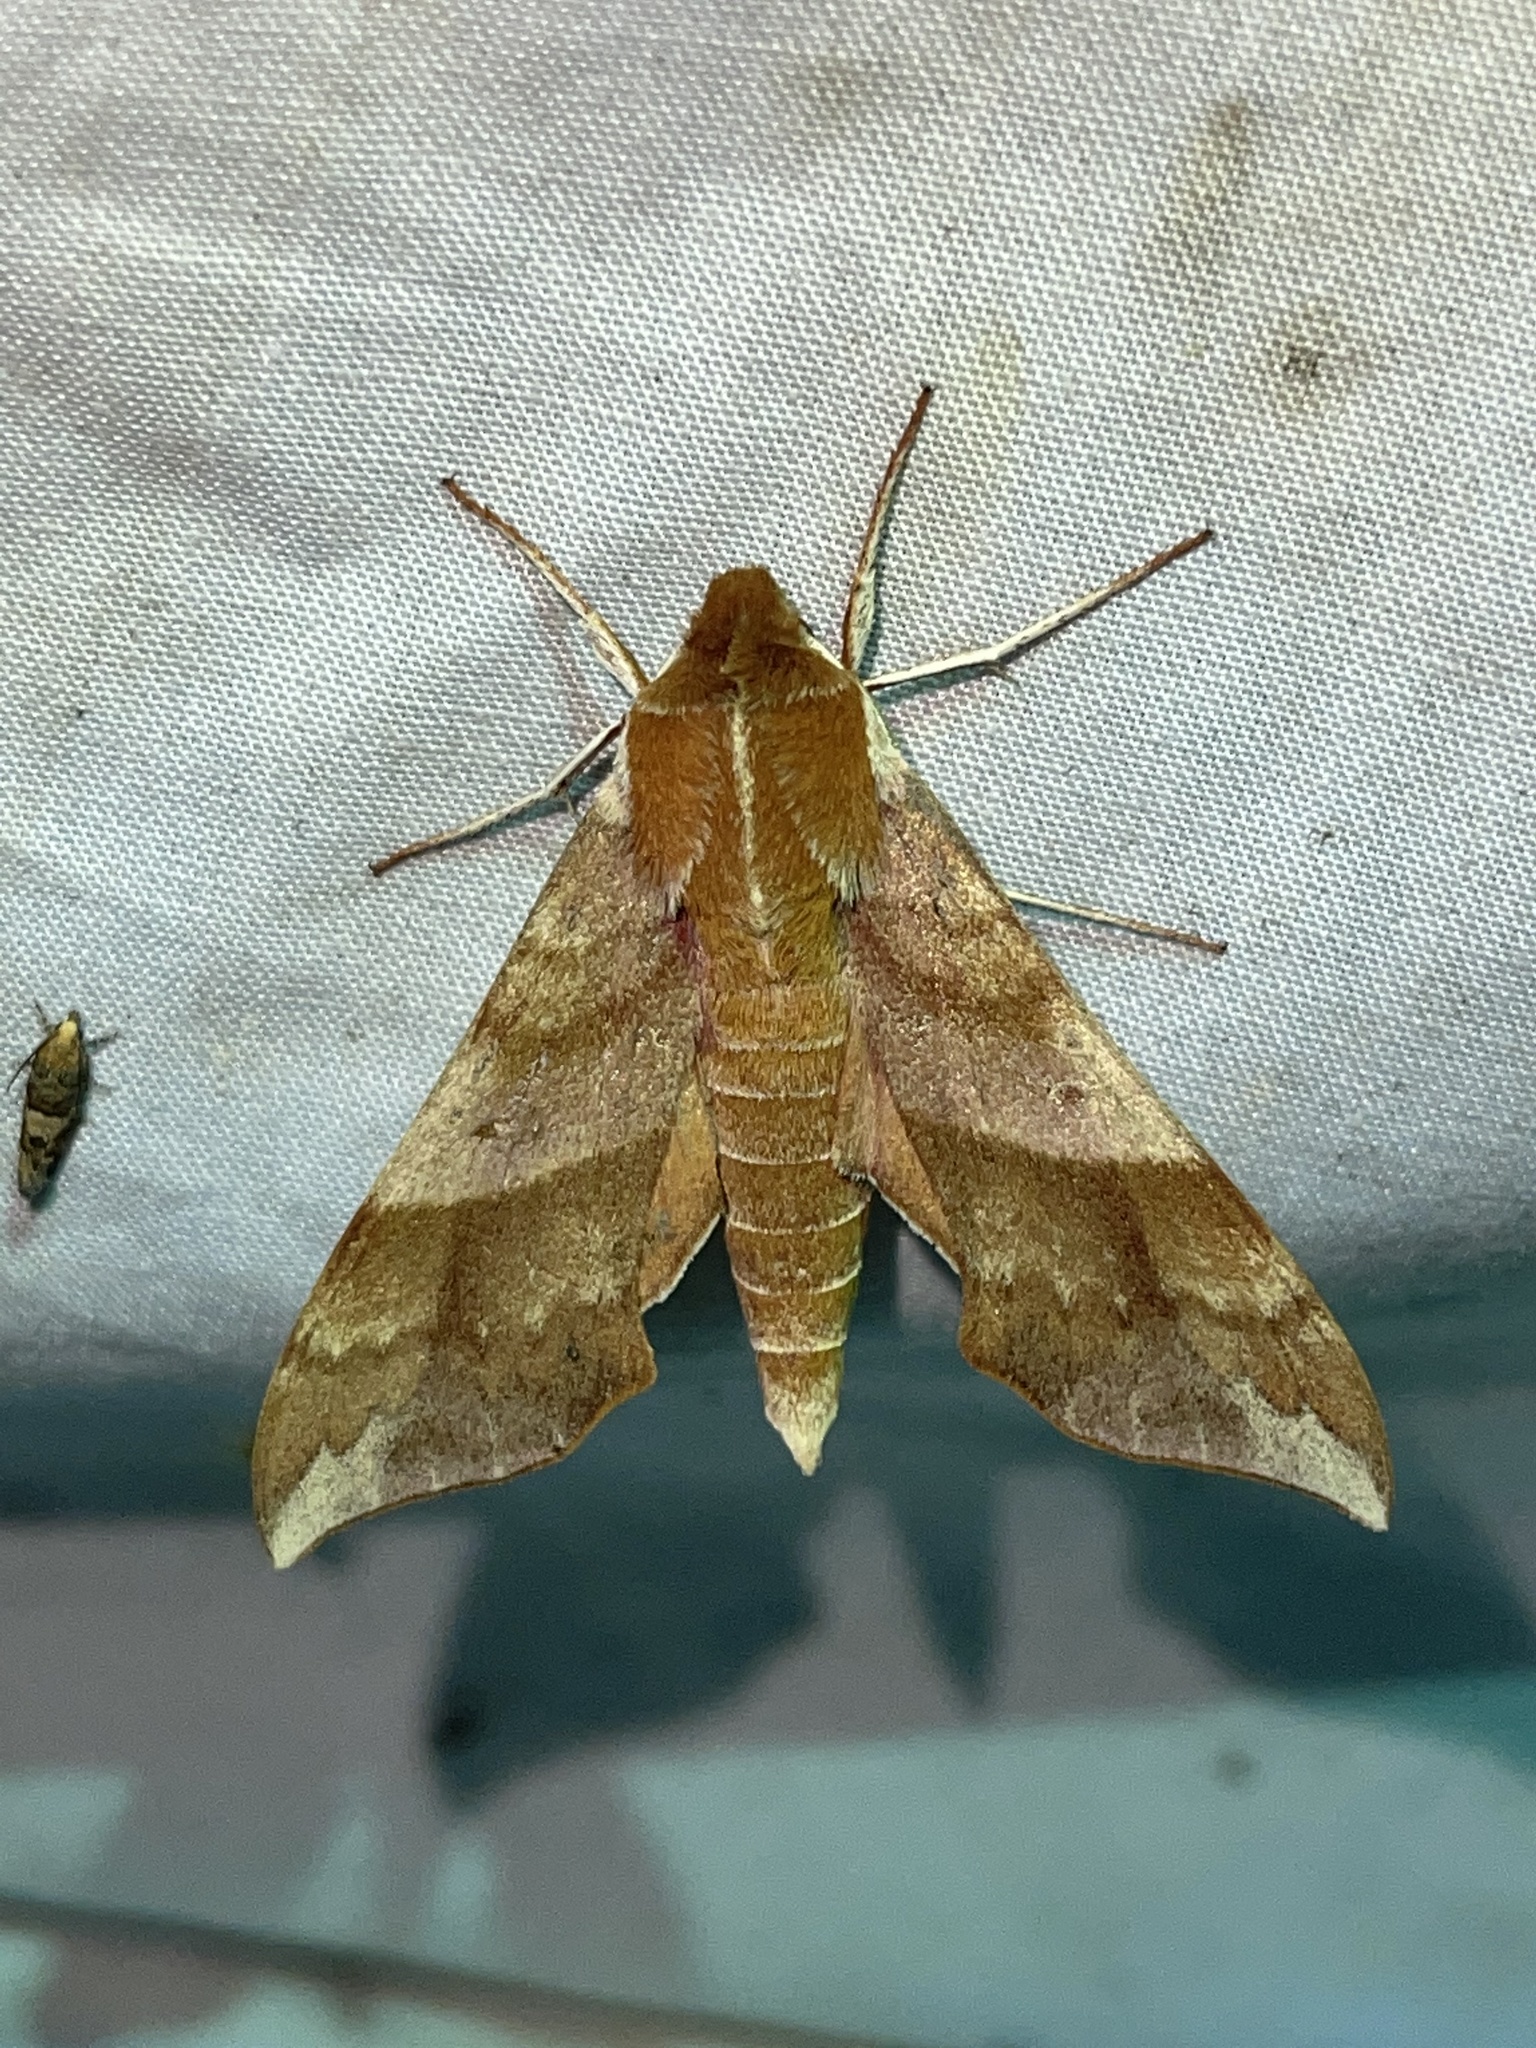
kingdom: Animalia
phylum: Arthropoda
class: Insecta
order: Lepidoptera
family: Sphingidae
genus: Darapsa
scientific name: Darapsa choerilus
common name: Azalea sphinx
